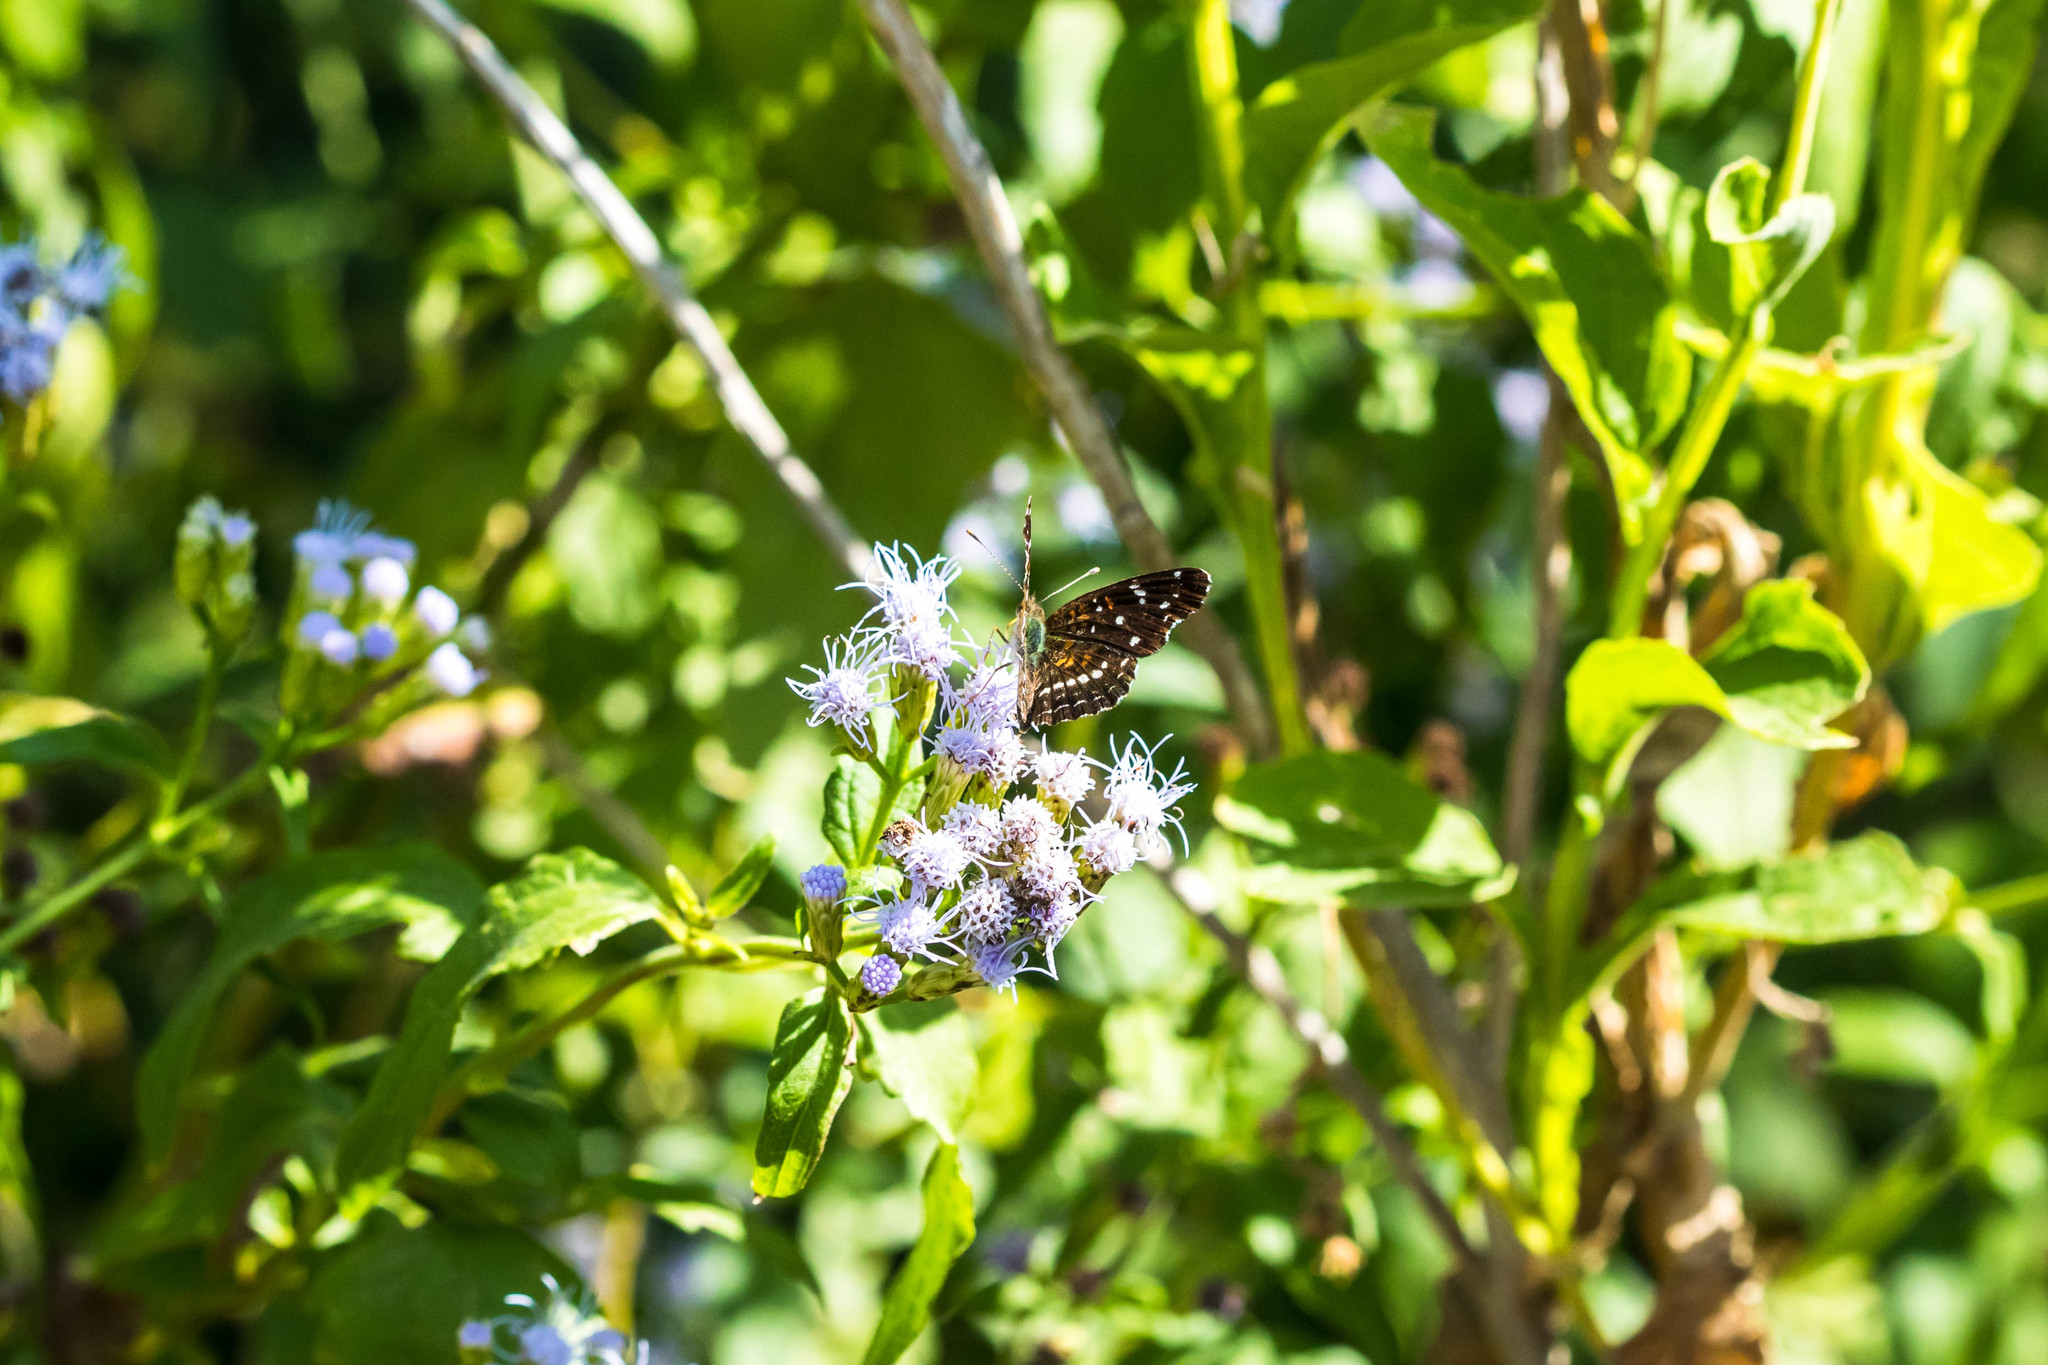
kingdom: Animalia
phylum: Arthropoda
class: Insecta
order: Lepidoptera
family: Nymphalidae
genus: Anthanassa
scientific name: Anthanassa texana
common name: Texan crescent
